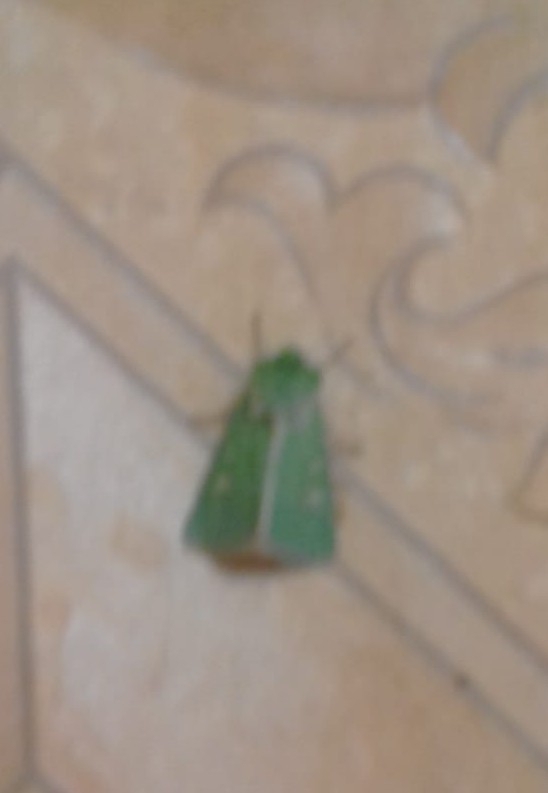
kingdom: Animalia
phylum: Arthropoda
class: Insecta
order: Lepidoptera
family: Noctuidae
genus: Calamia
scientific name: Calamia tridens
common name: Burren green
